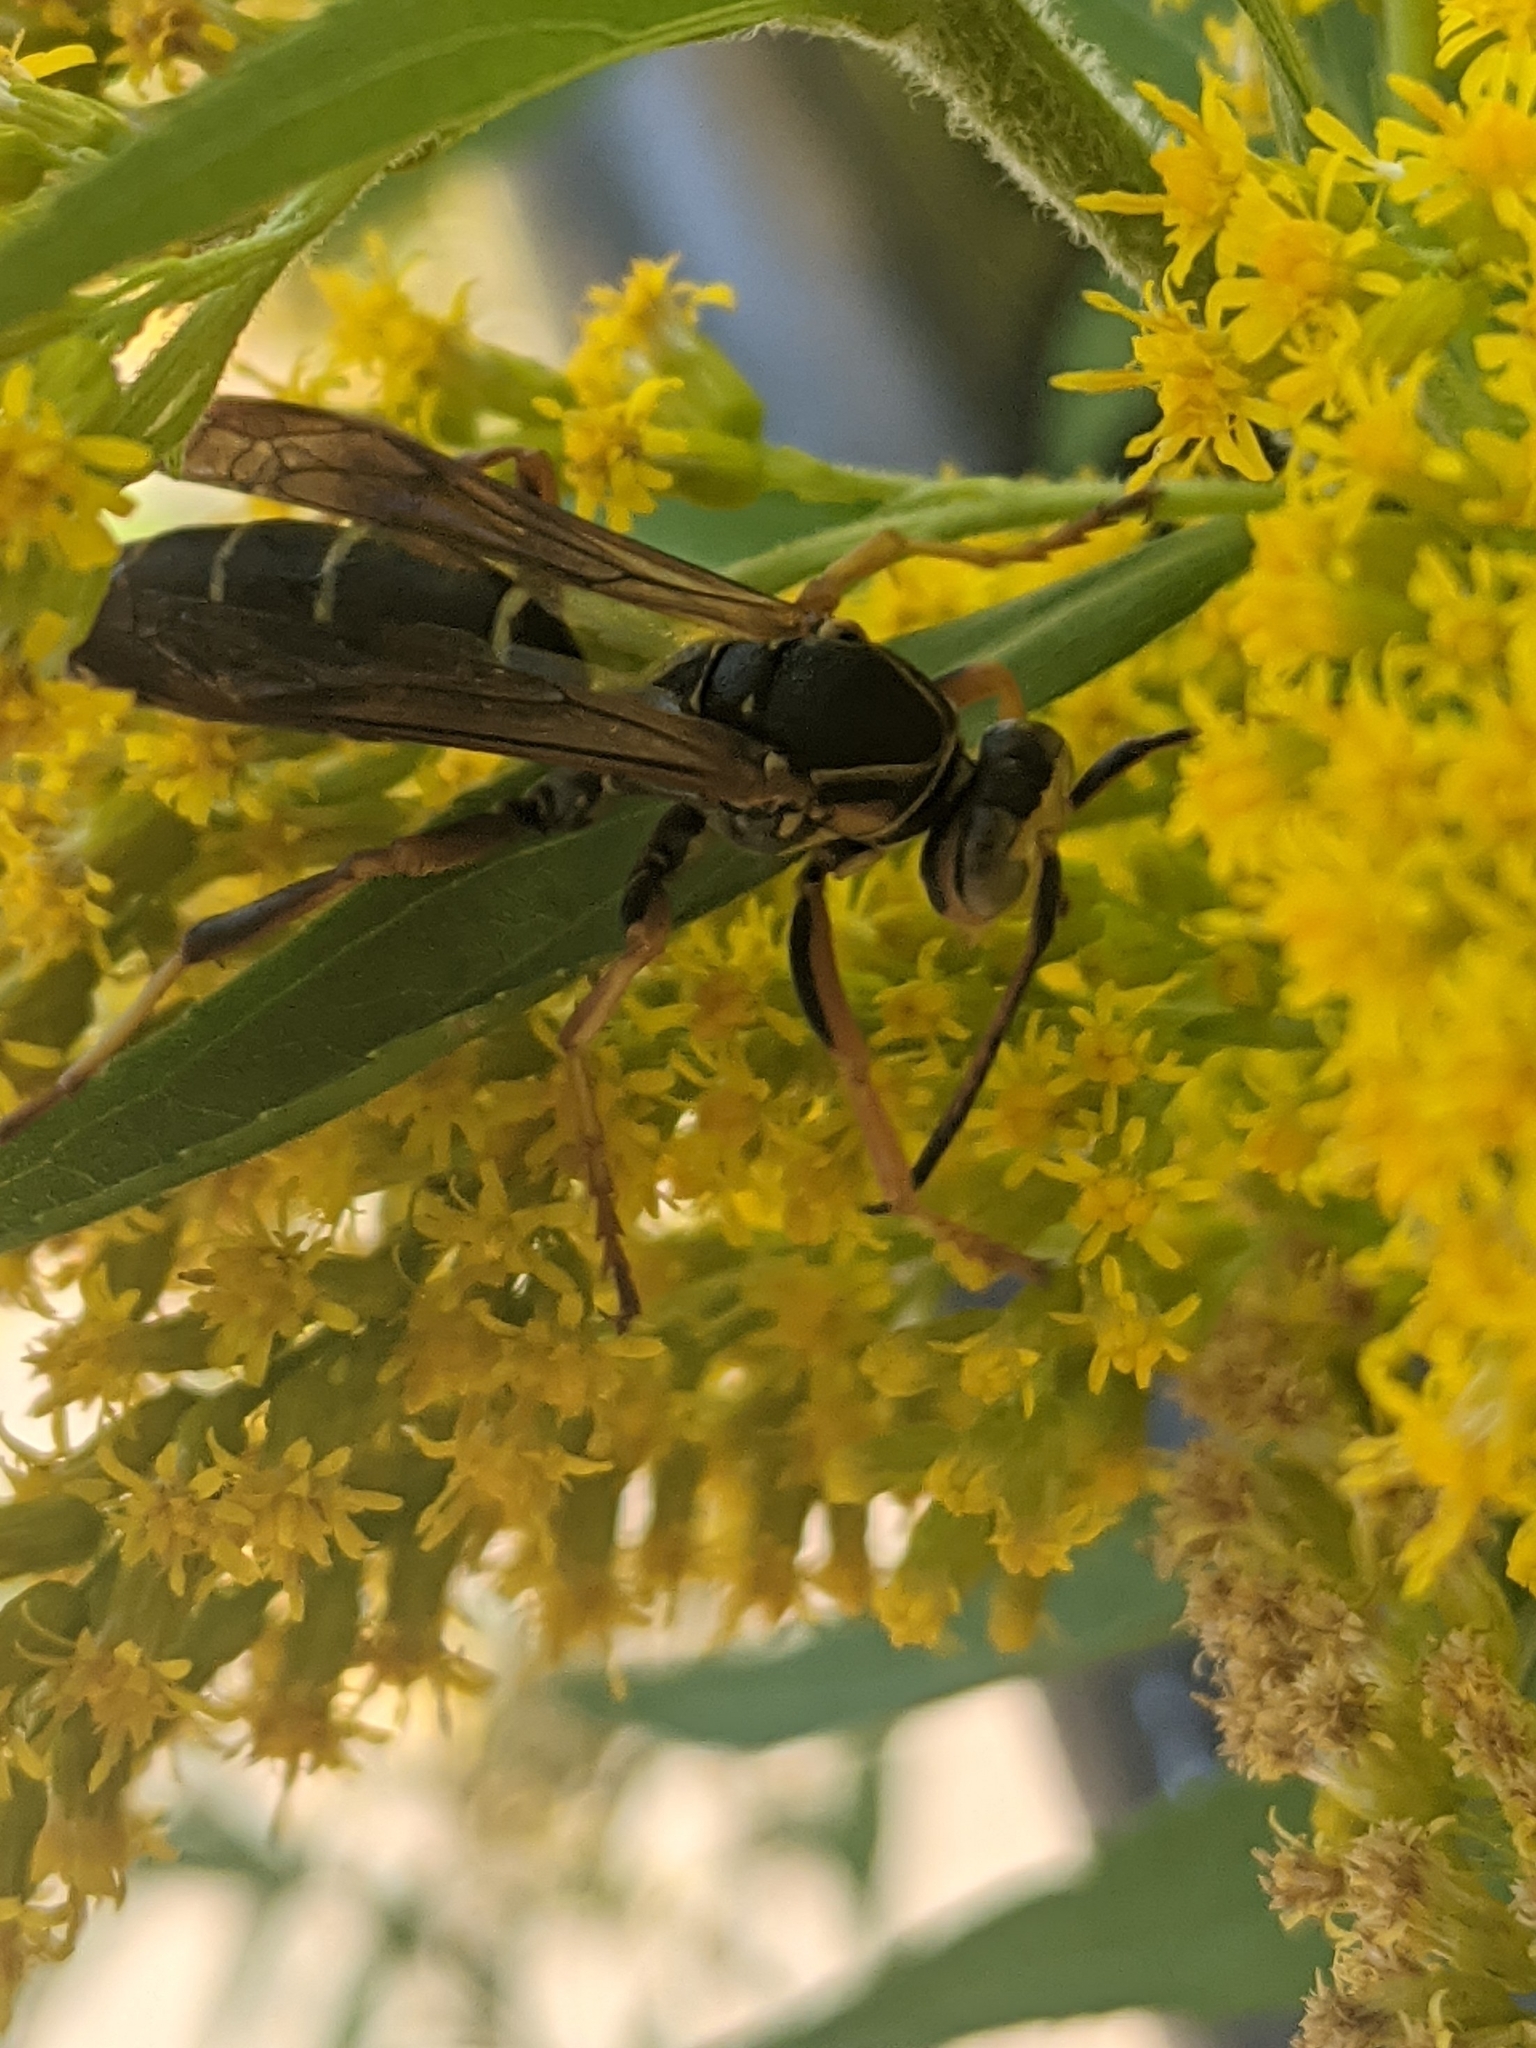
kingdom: Animalia
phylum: Arthropoda
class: Insecta
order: Hymenoptera
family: Eumenidae
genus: Polistes
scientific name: Polistes fuscatus
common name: Dark paper wasp
